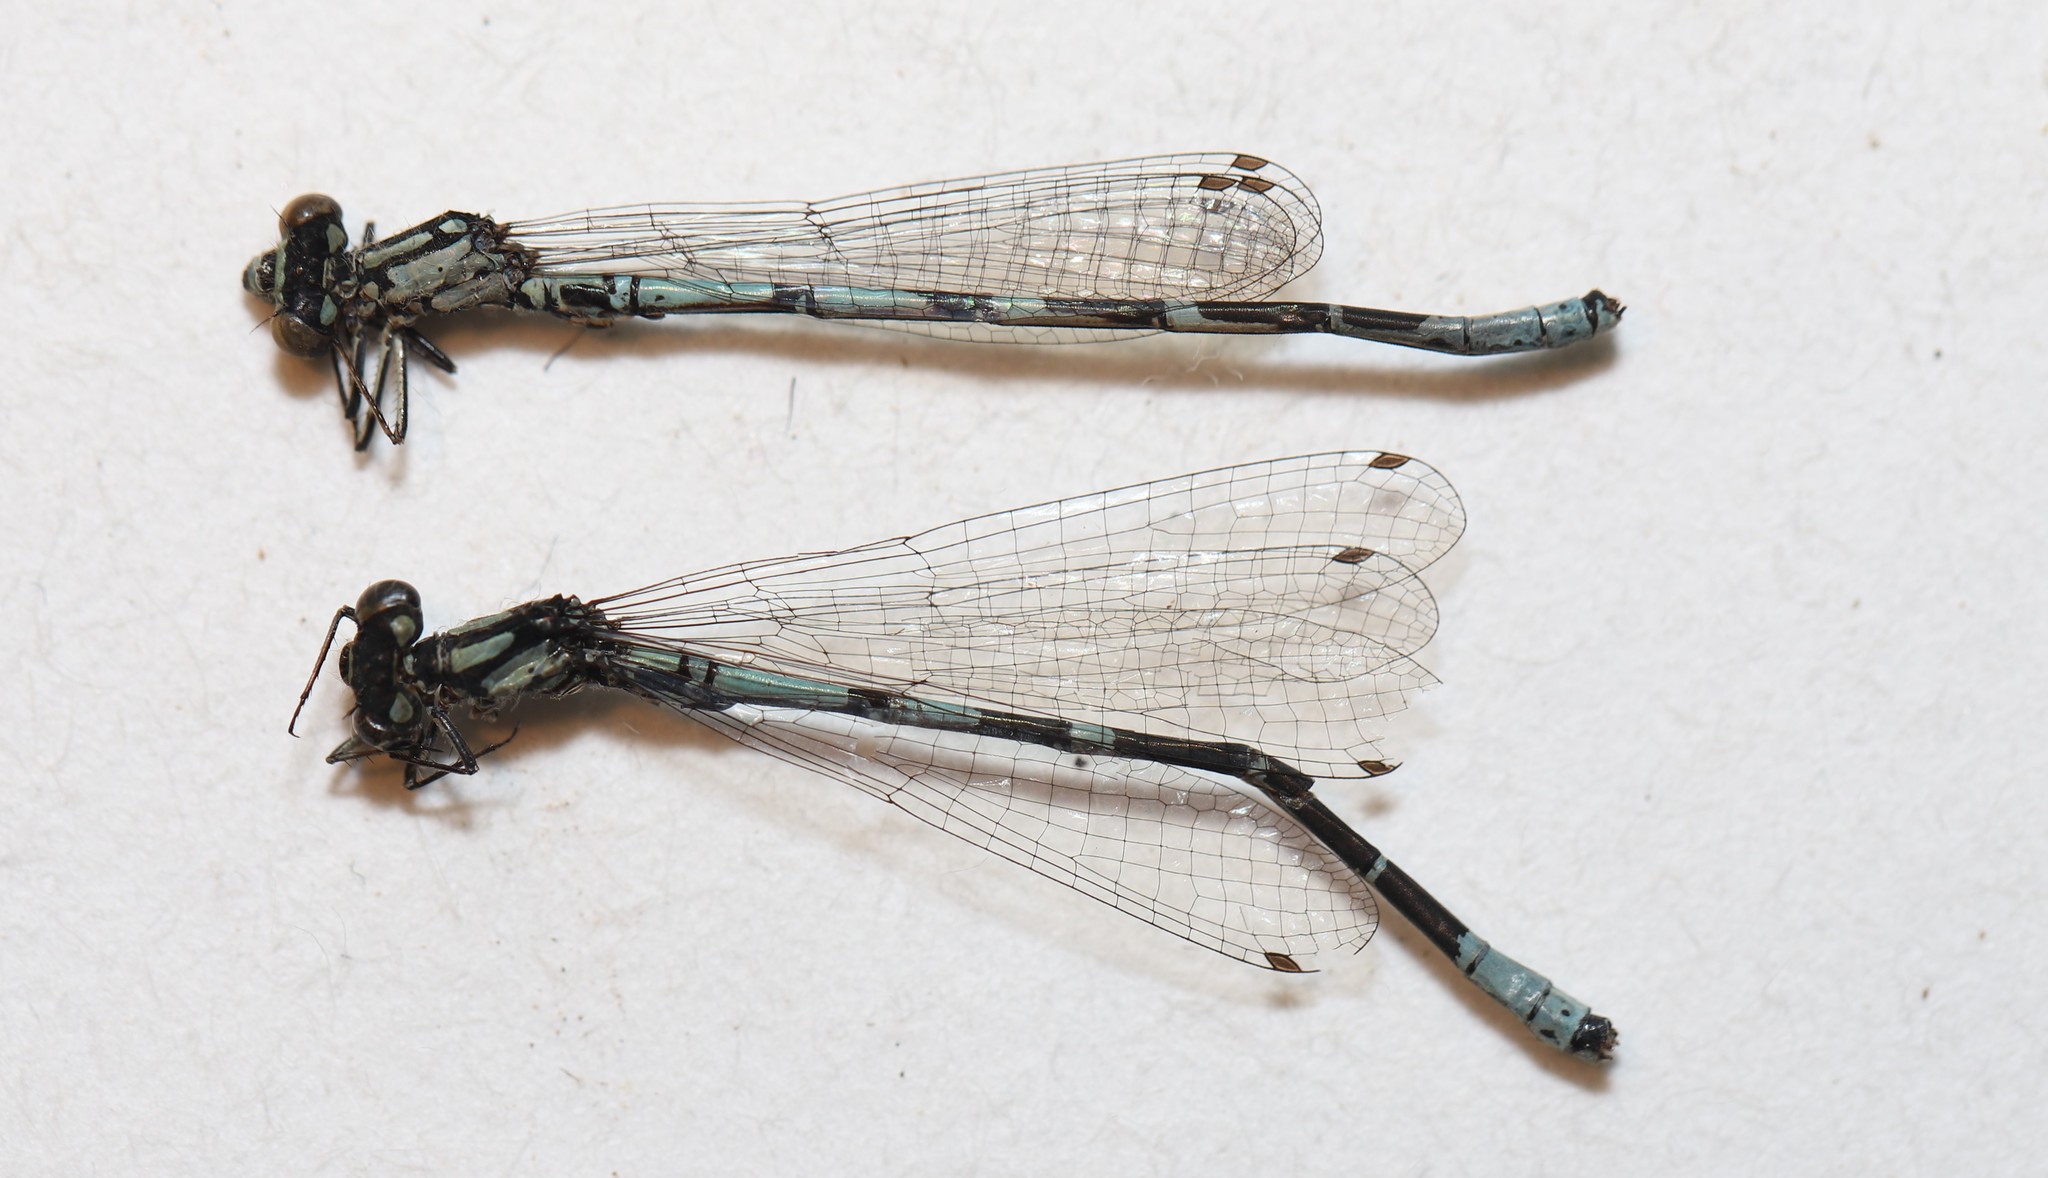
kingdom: Animalia
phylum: Arthropoda
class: Insecta
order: Odonata
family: Coenagrionidae
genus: Coenagrion
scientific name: Coenagrion interrogatum
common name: Subarctic bluet
